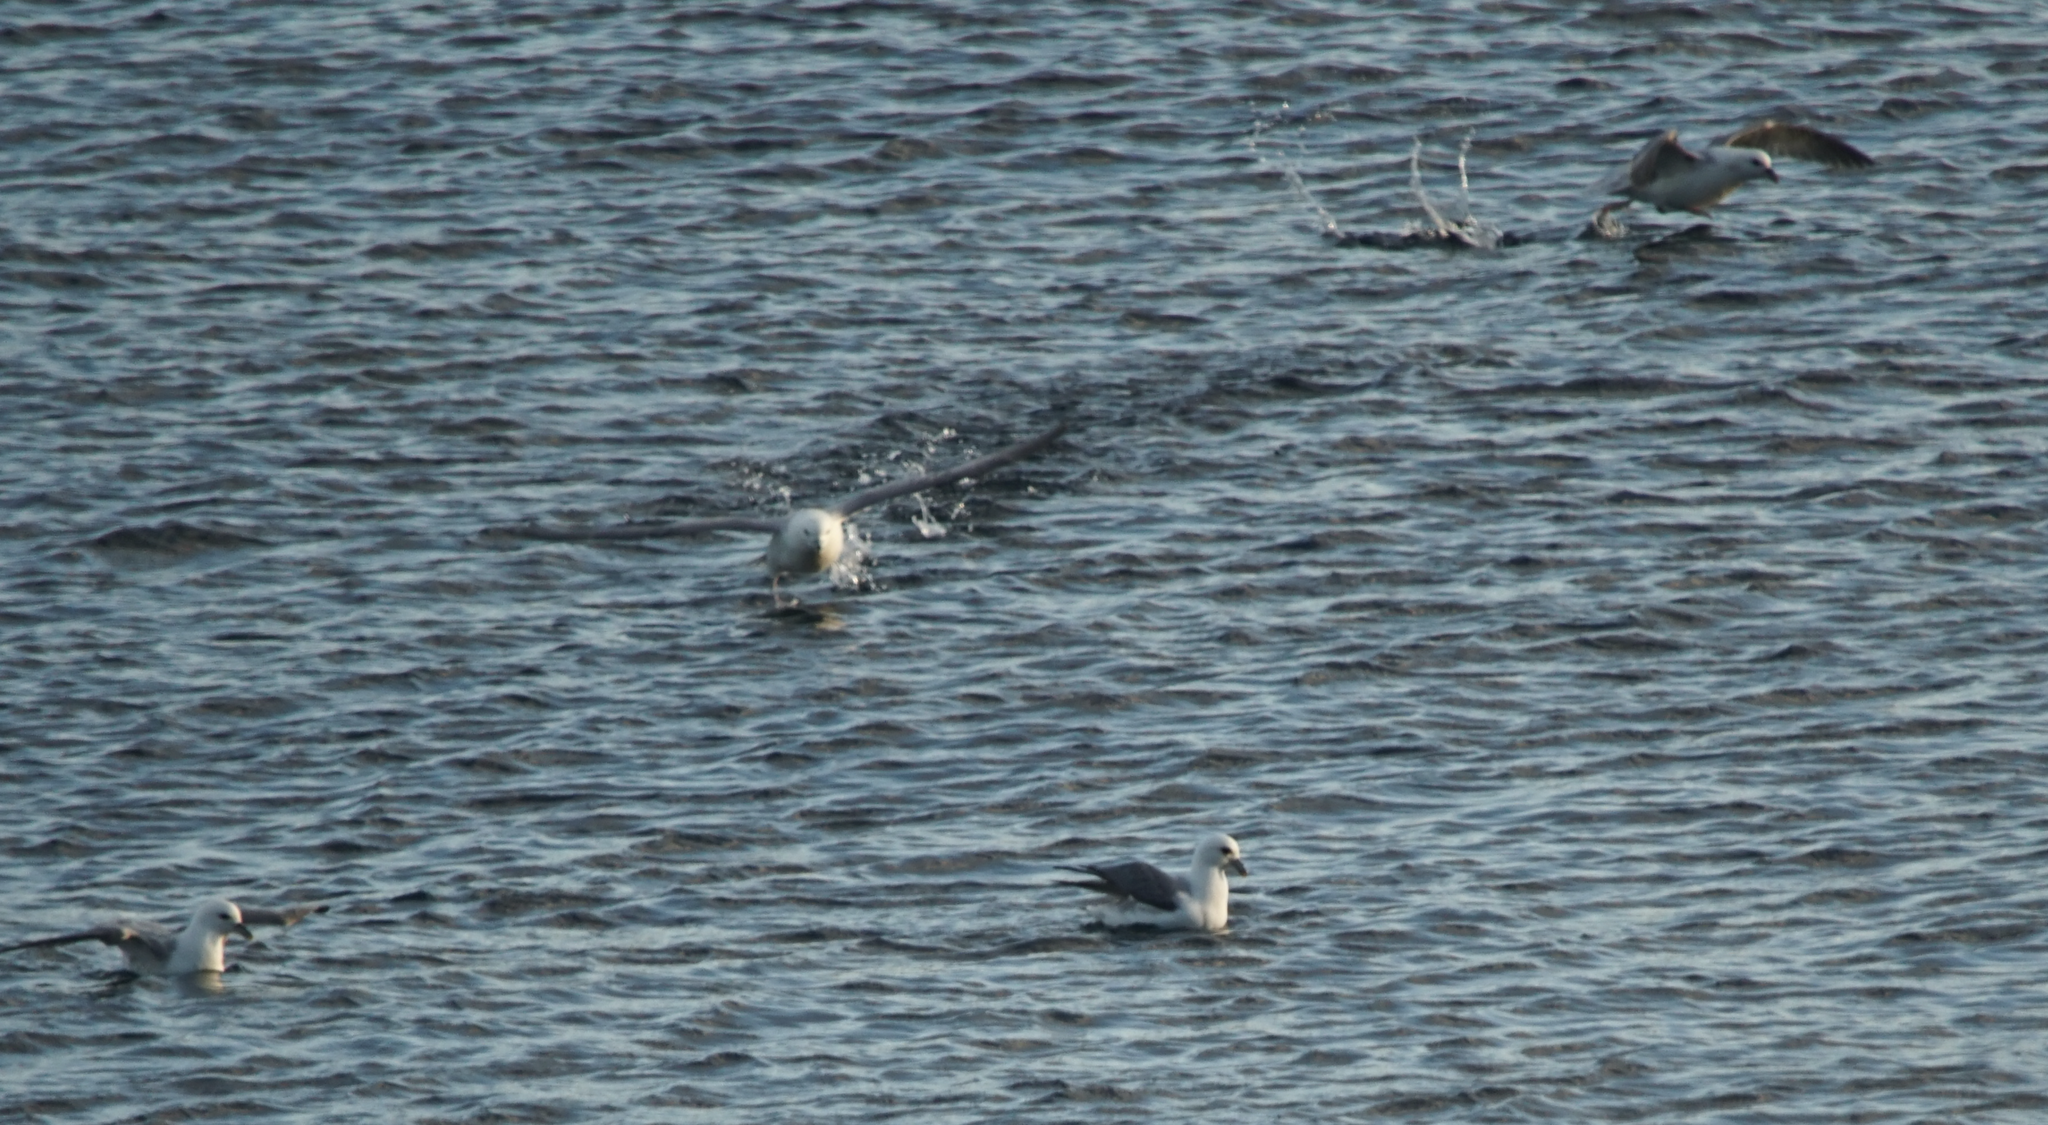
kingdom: Animalia
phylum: Chordata
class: Aves
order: Procellariiformes
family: Procellariidae
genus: Fulmarus
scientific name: Fulmarus glacialis
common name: Northern fulmar
